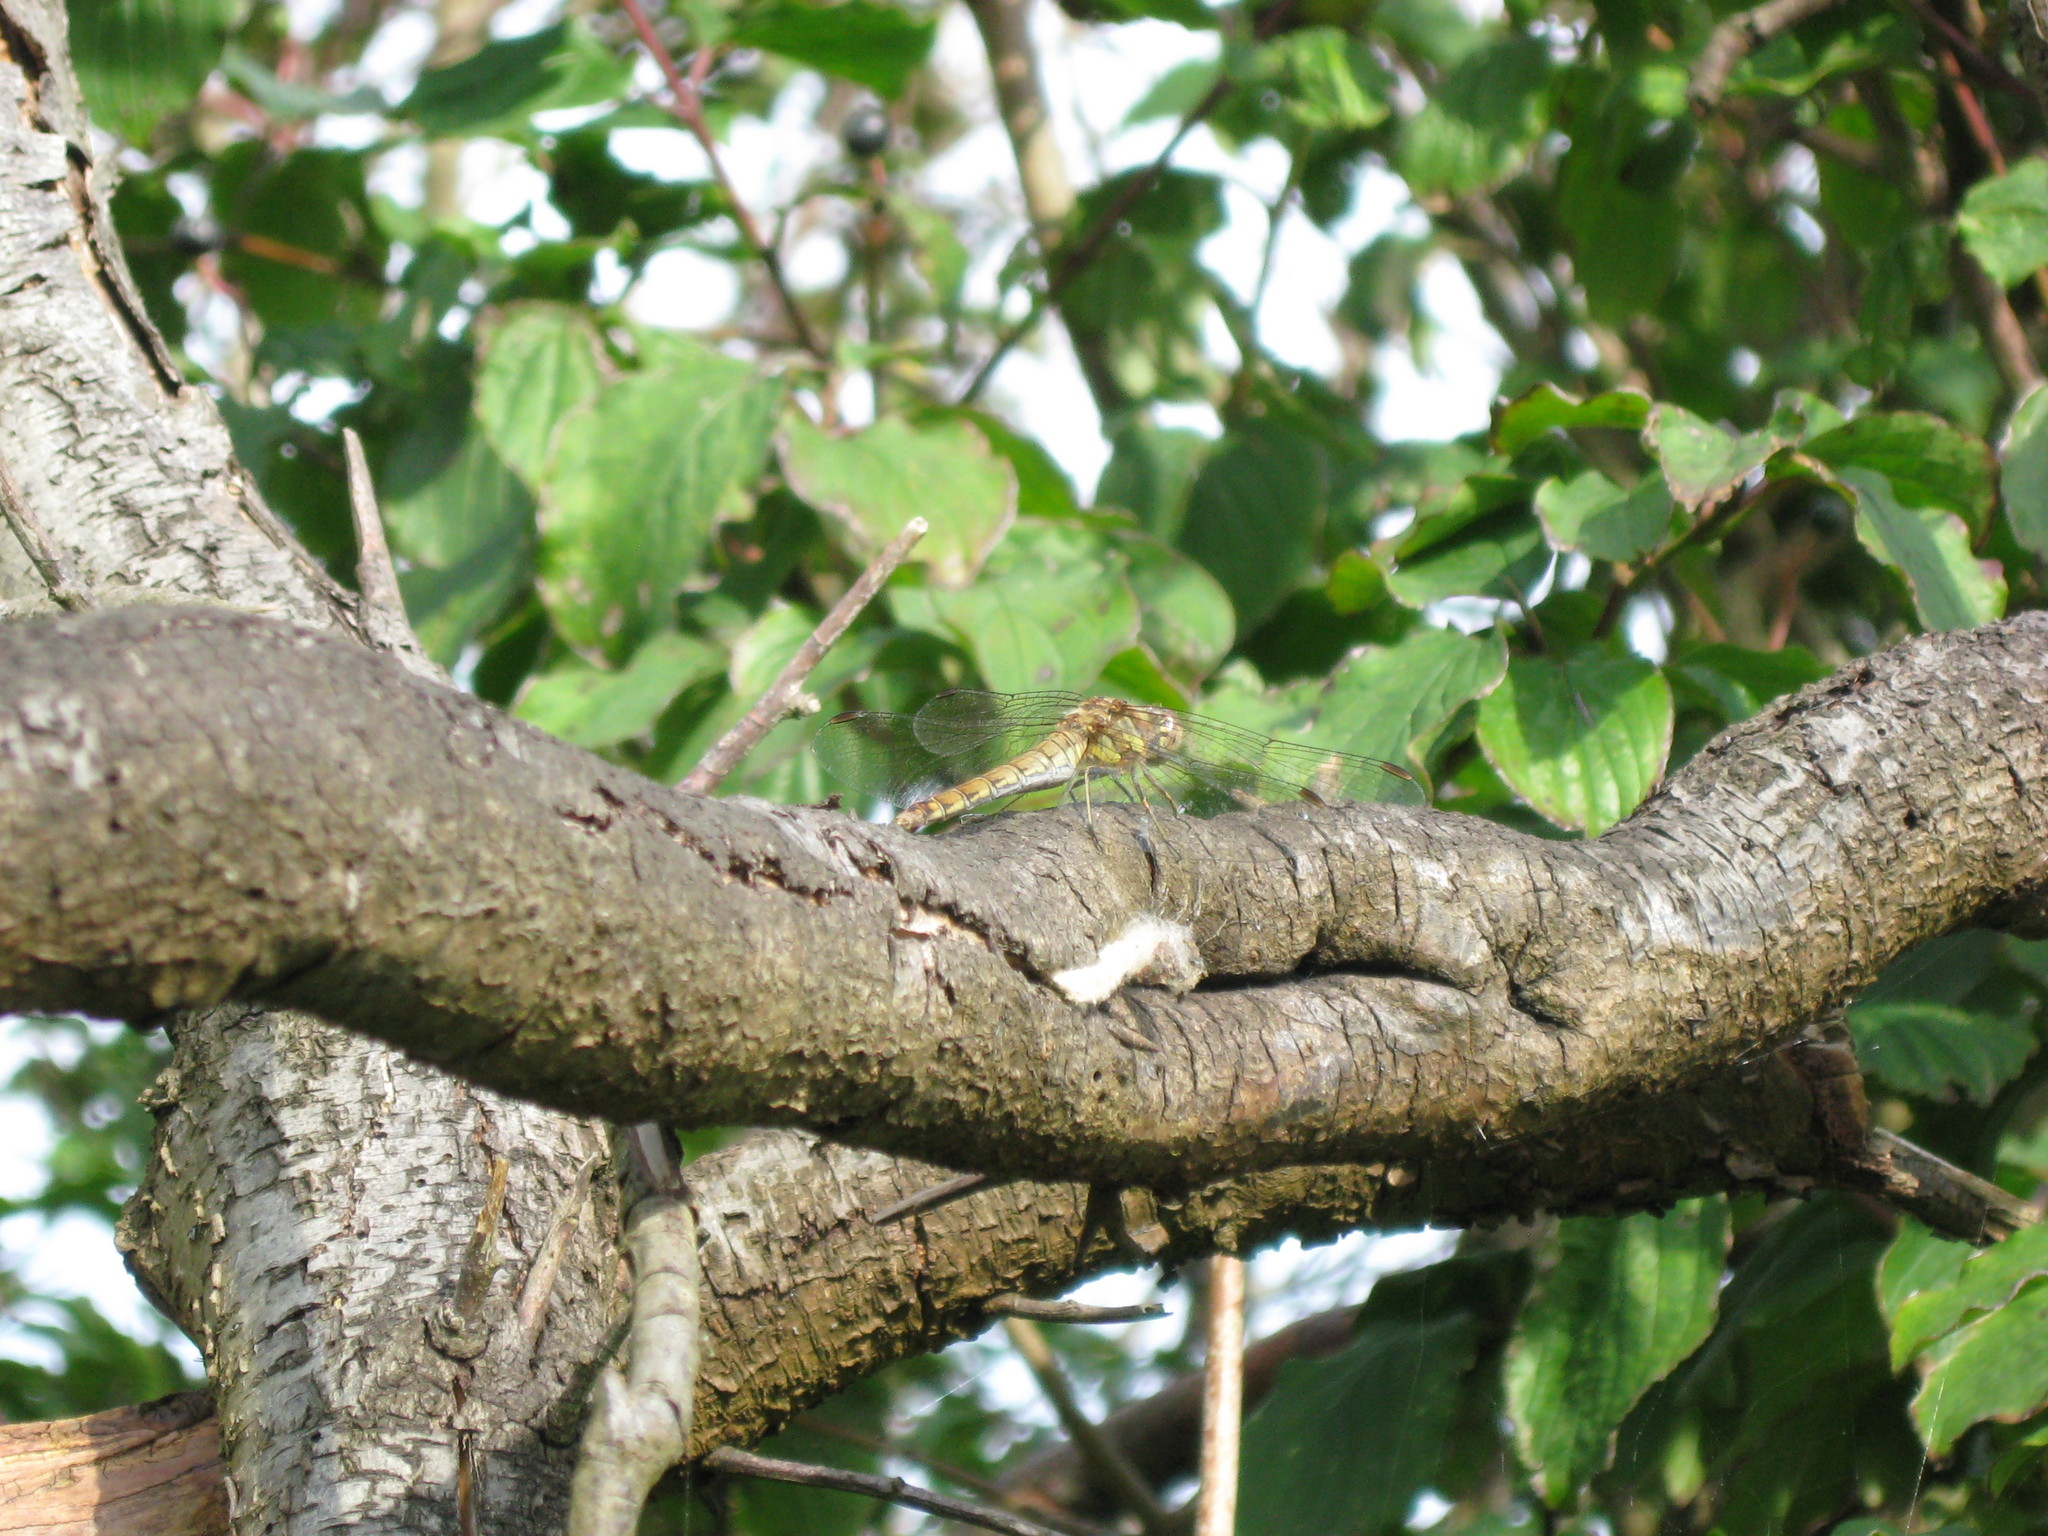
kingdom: Animalia
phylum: Arthropoda
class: Insecta
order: Odonata
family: Libellulidae
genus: Sympetrum
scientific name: Sympetrum striolatum
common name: Common darter
